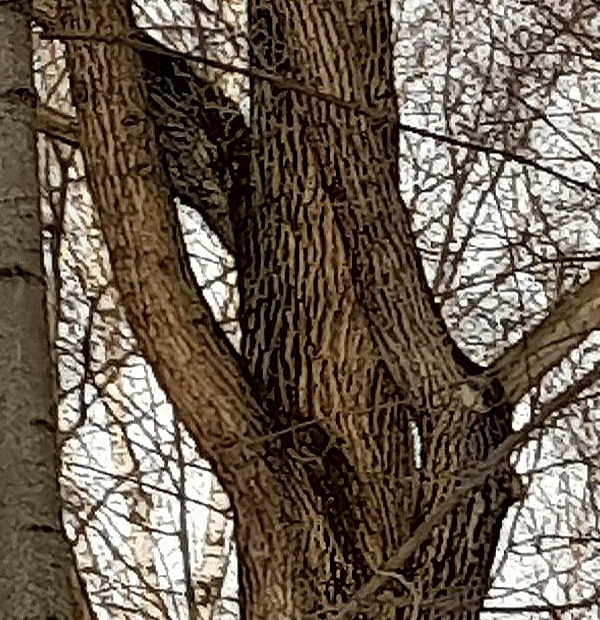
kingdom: Plantae
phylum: Tracheophyta
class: Magnoliopsida
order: Fagales
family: Fagaceae
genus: Quercus
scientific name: Quercus robur
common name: Pedunculate oak
